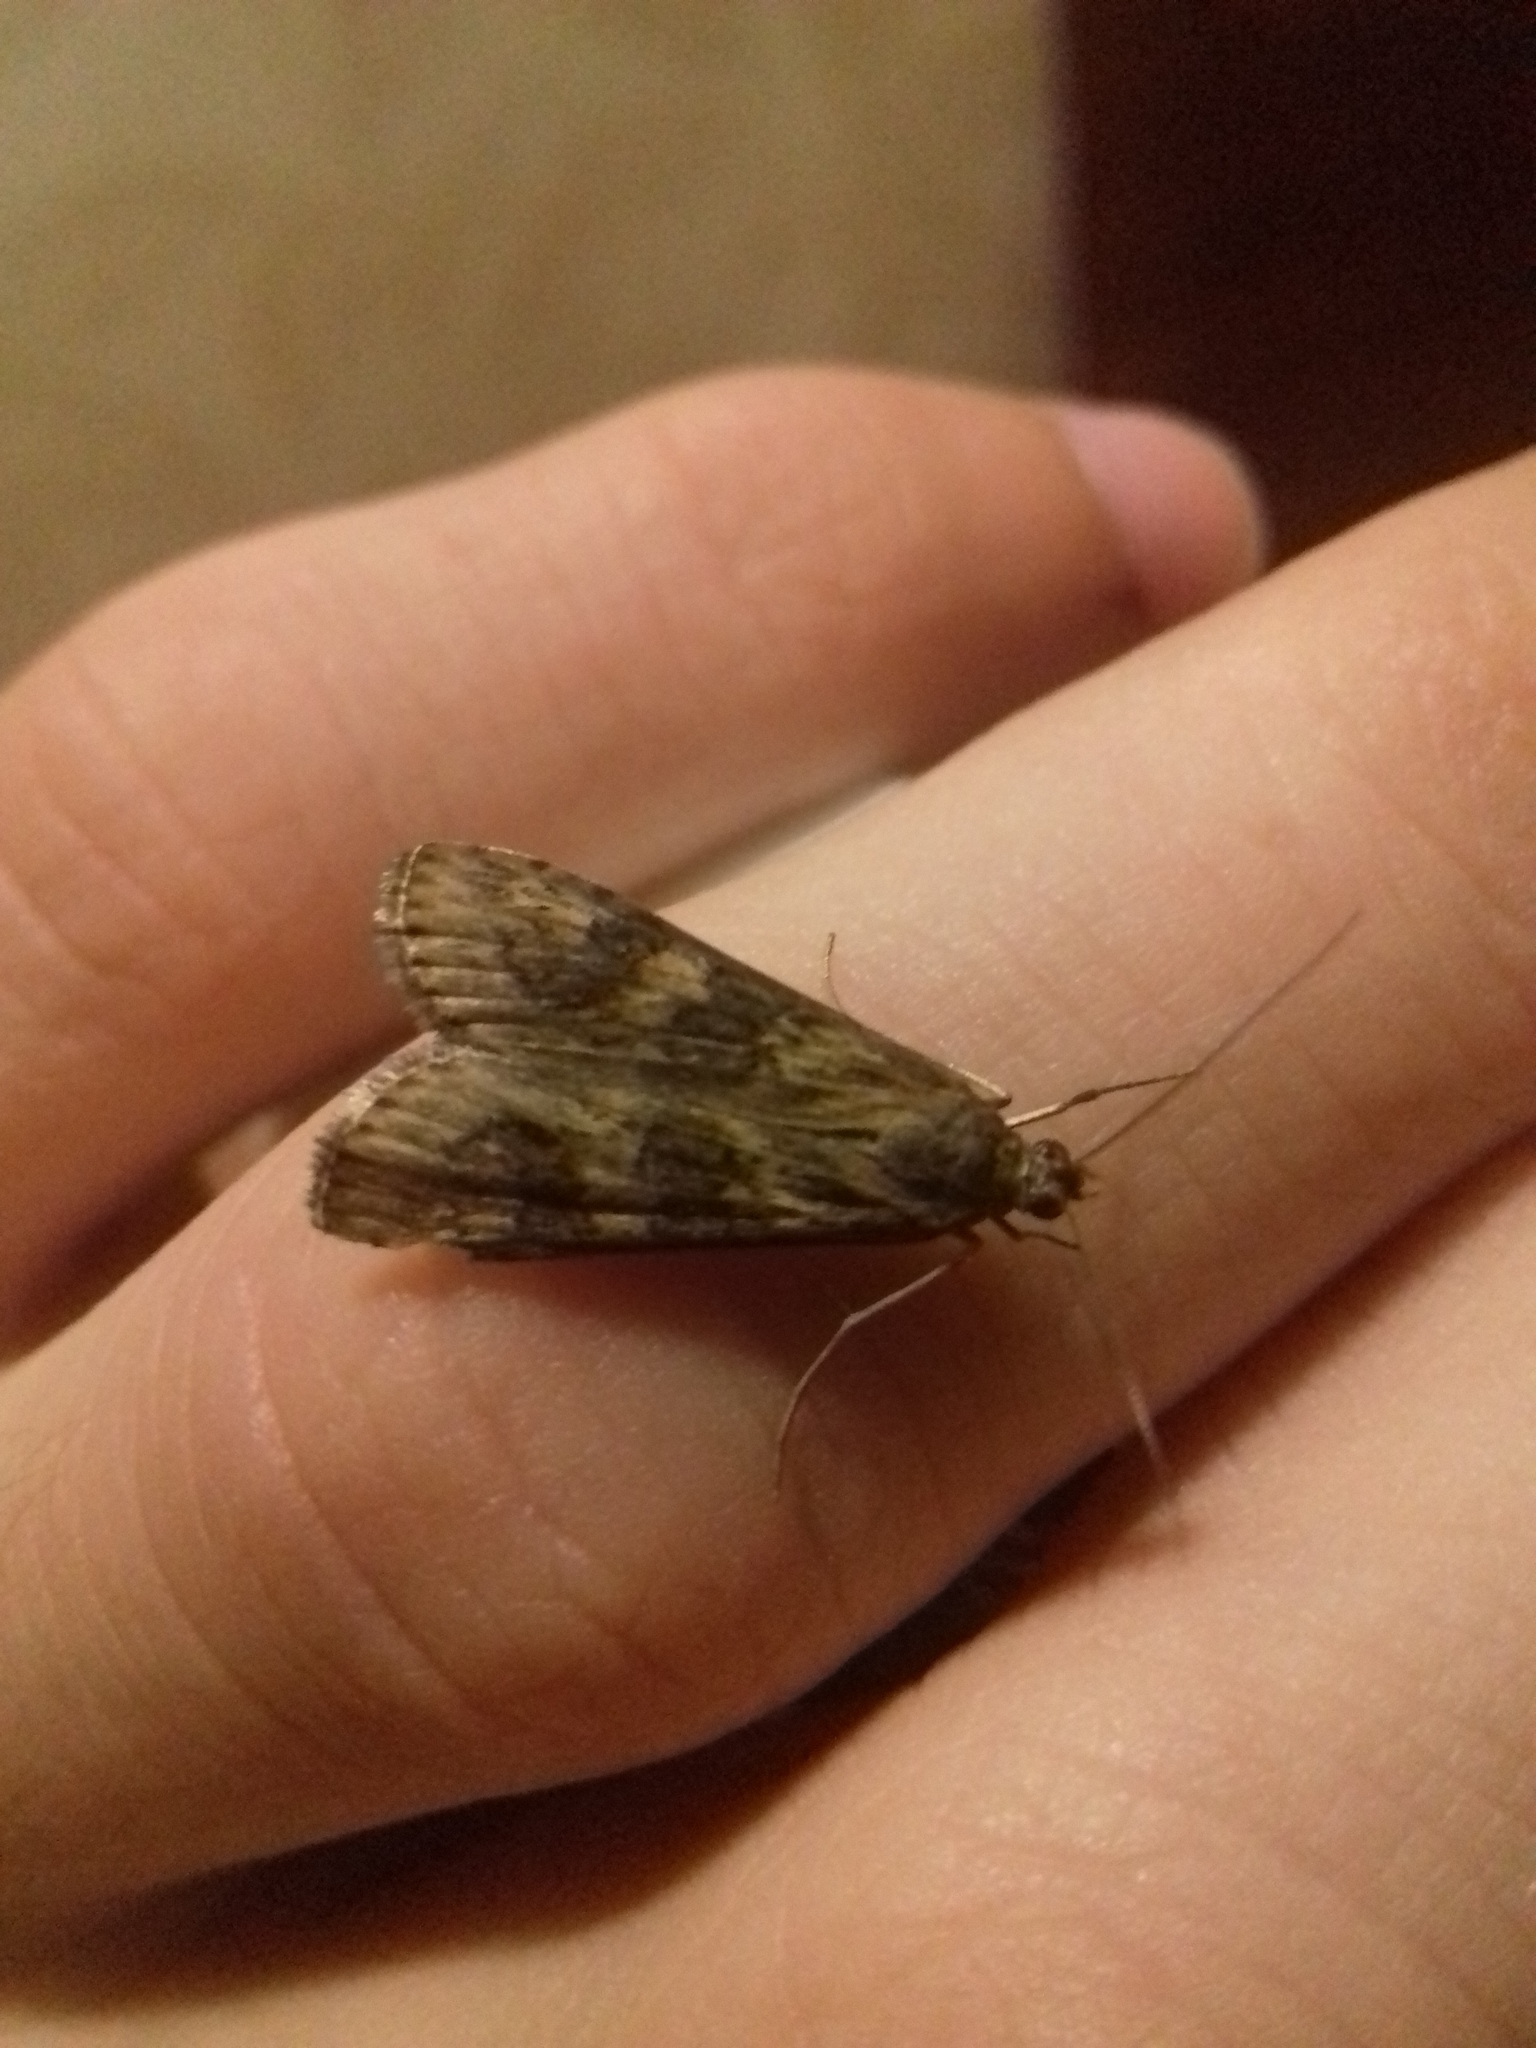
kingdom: Animalia
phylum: Arthropoda
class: Insecta
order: Lepidoptera
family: Crambidae
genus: Nomophila
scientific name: Nomophila noctuella
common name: Rush veneer
